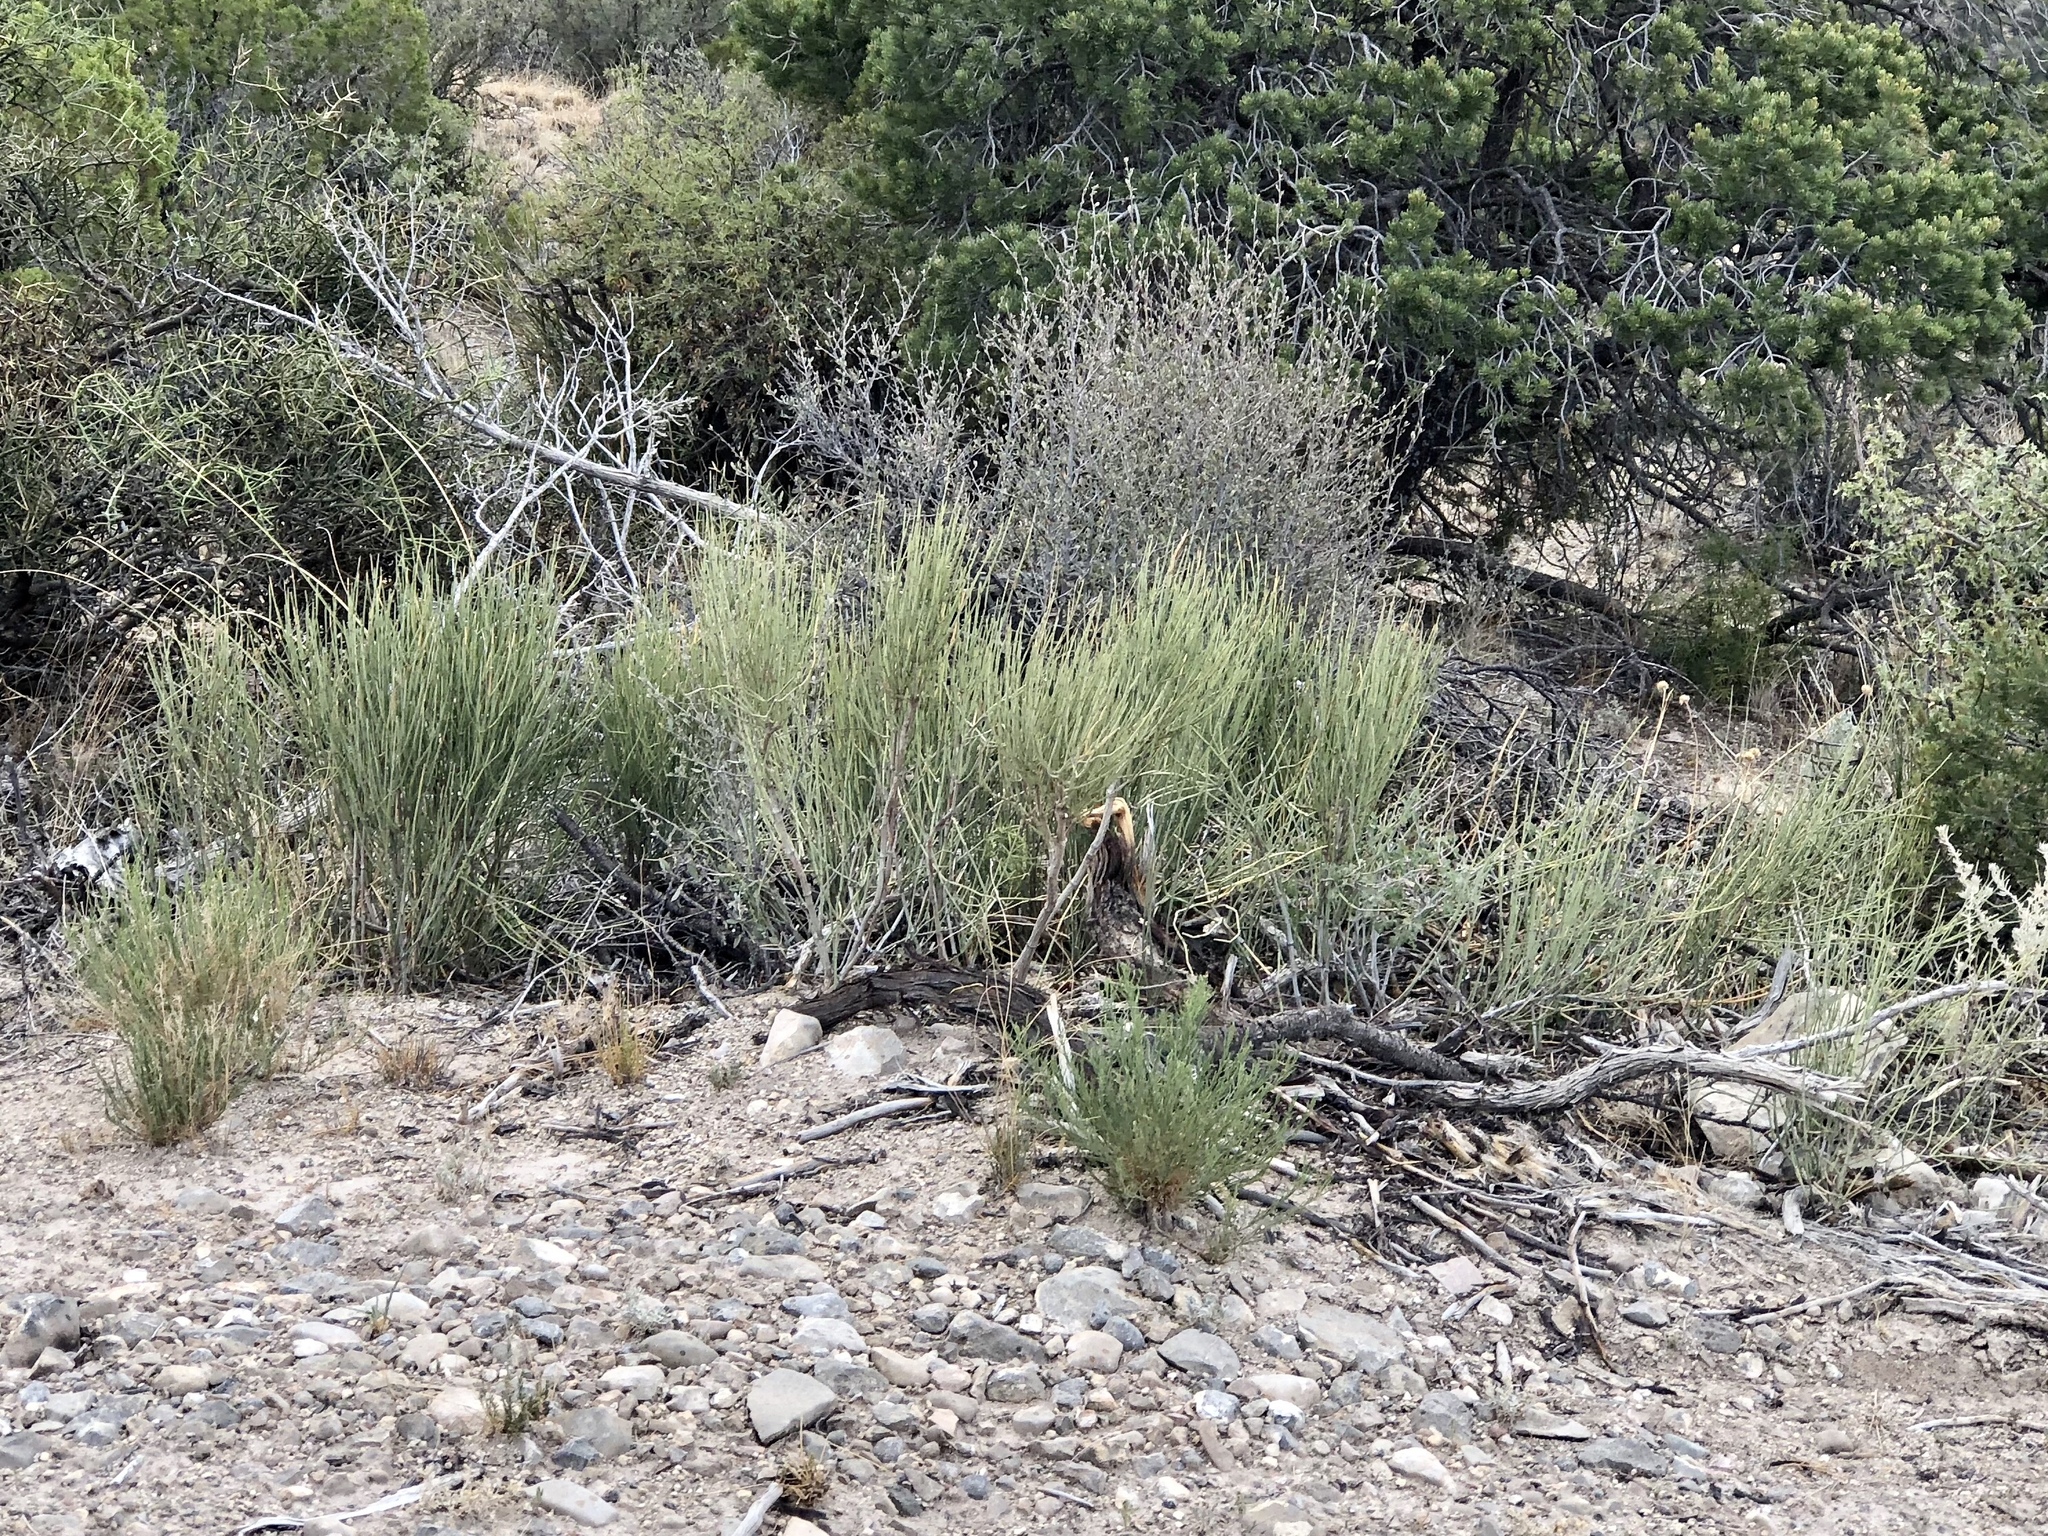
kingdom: Plantae
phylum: Tracheophyta
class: Gnetopsida
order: Ephedrales
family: Ephedraceae
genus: Ephedra
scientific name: Ephedra aspera
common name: Boundary ephedra
